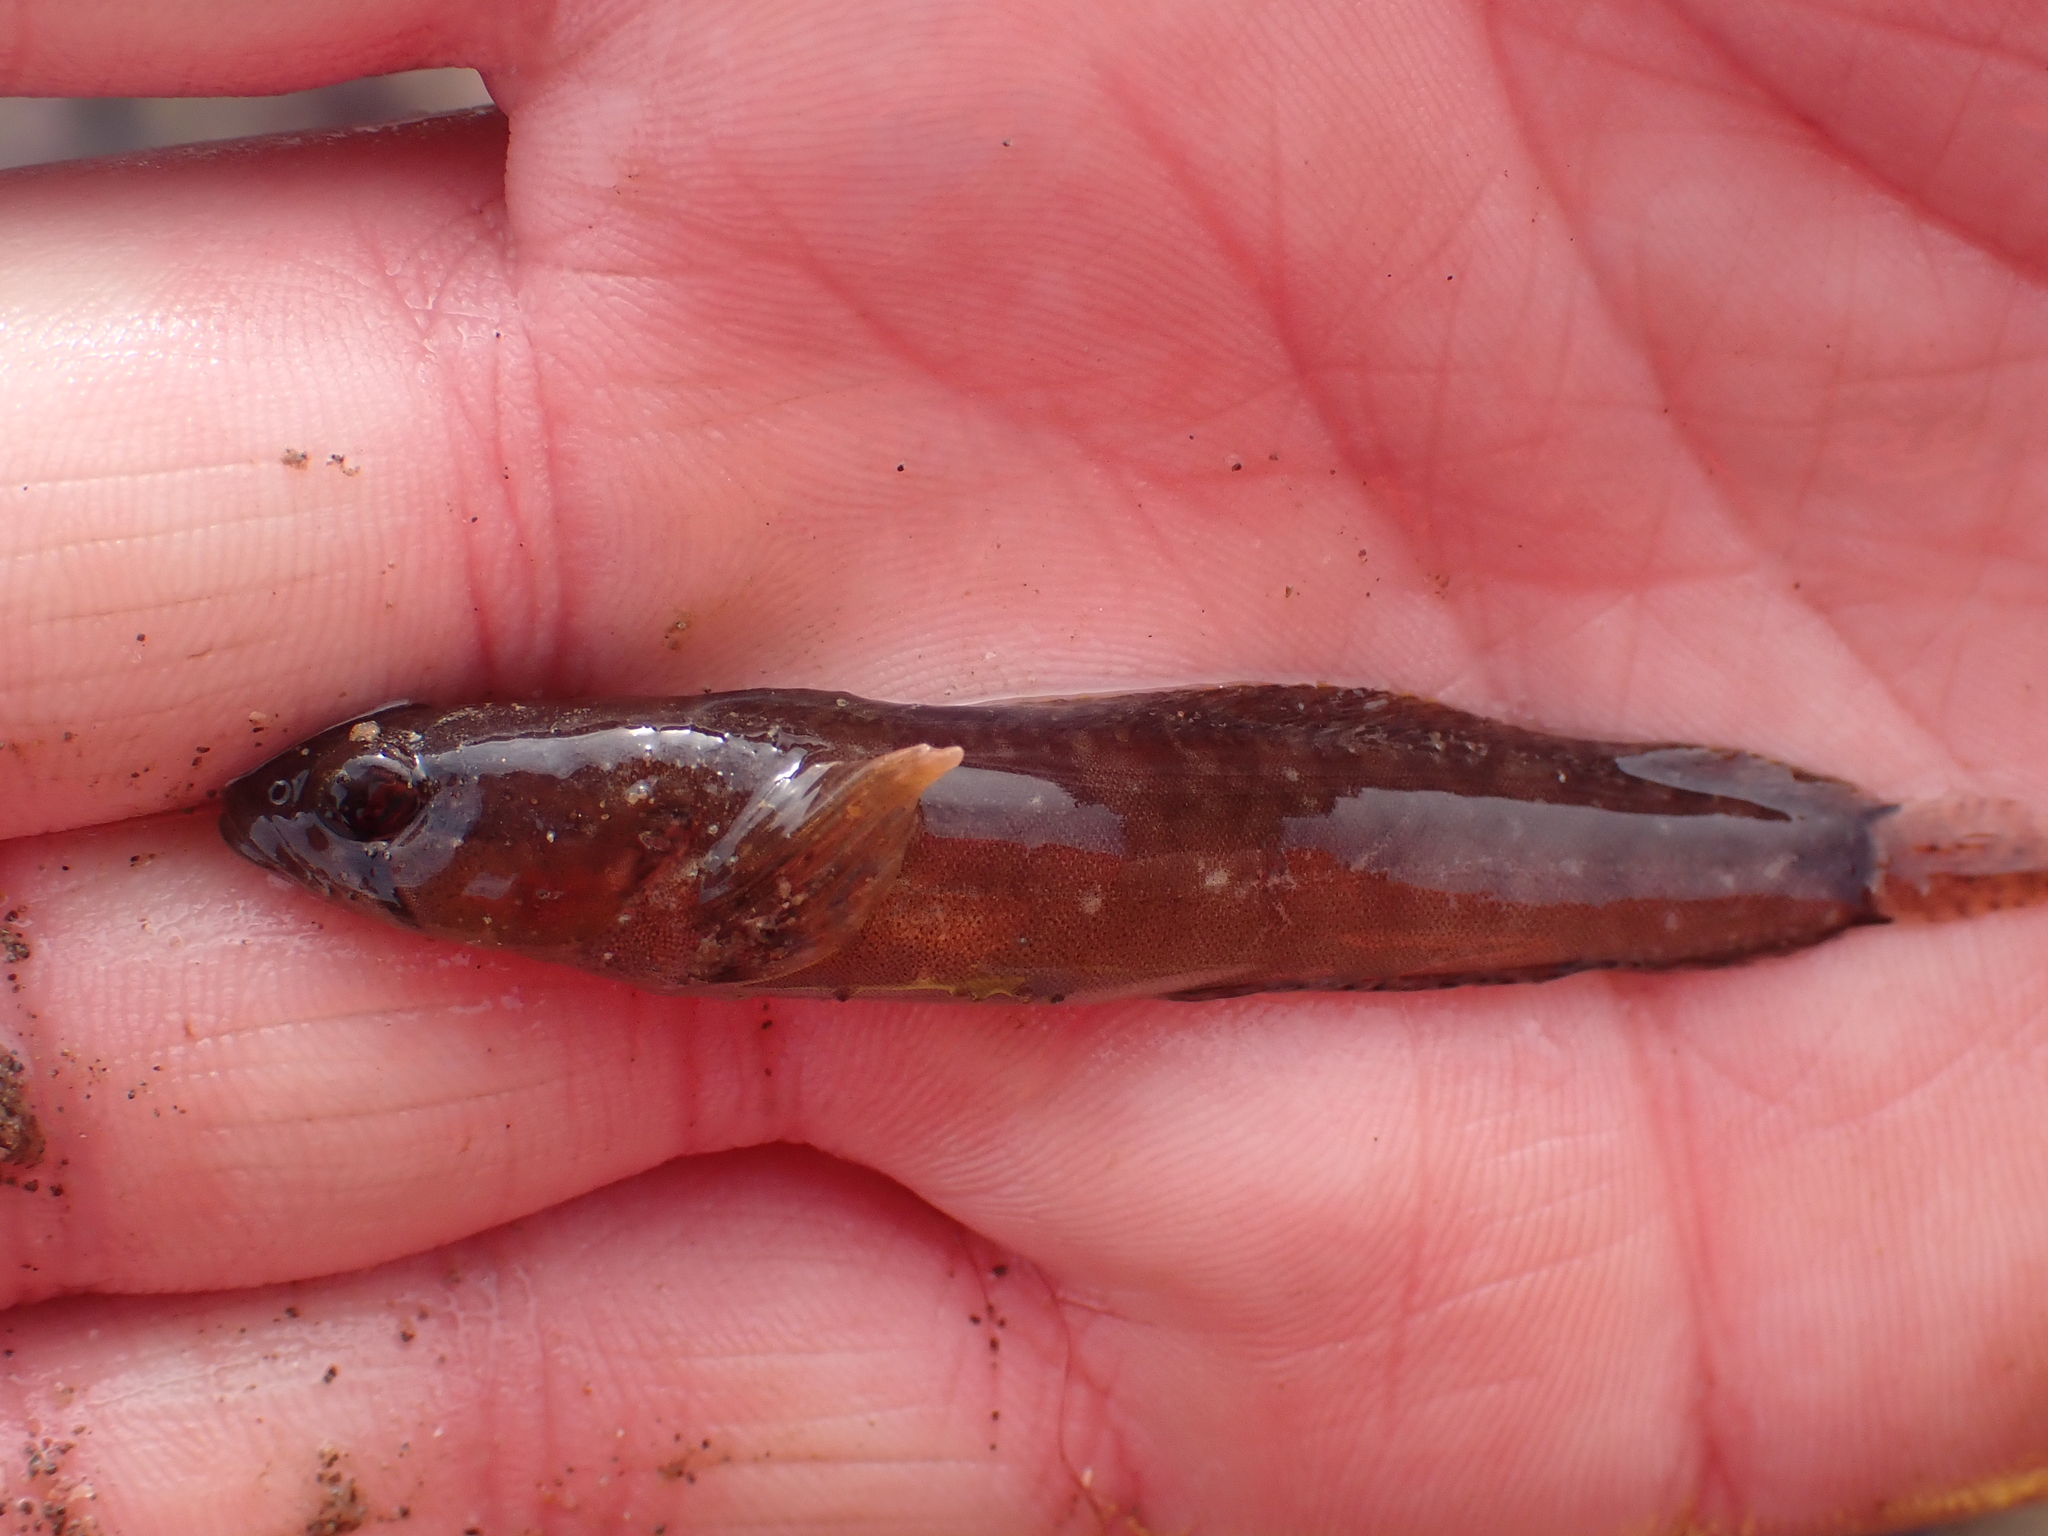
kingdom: Animalia
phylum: Chordata
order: Perciformes
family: Stichaeidae
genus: Ulvaria
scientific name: Ulvaria subbifurcata
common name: Radiated shanny
